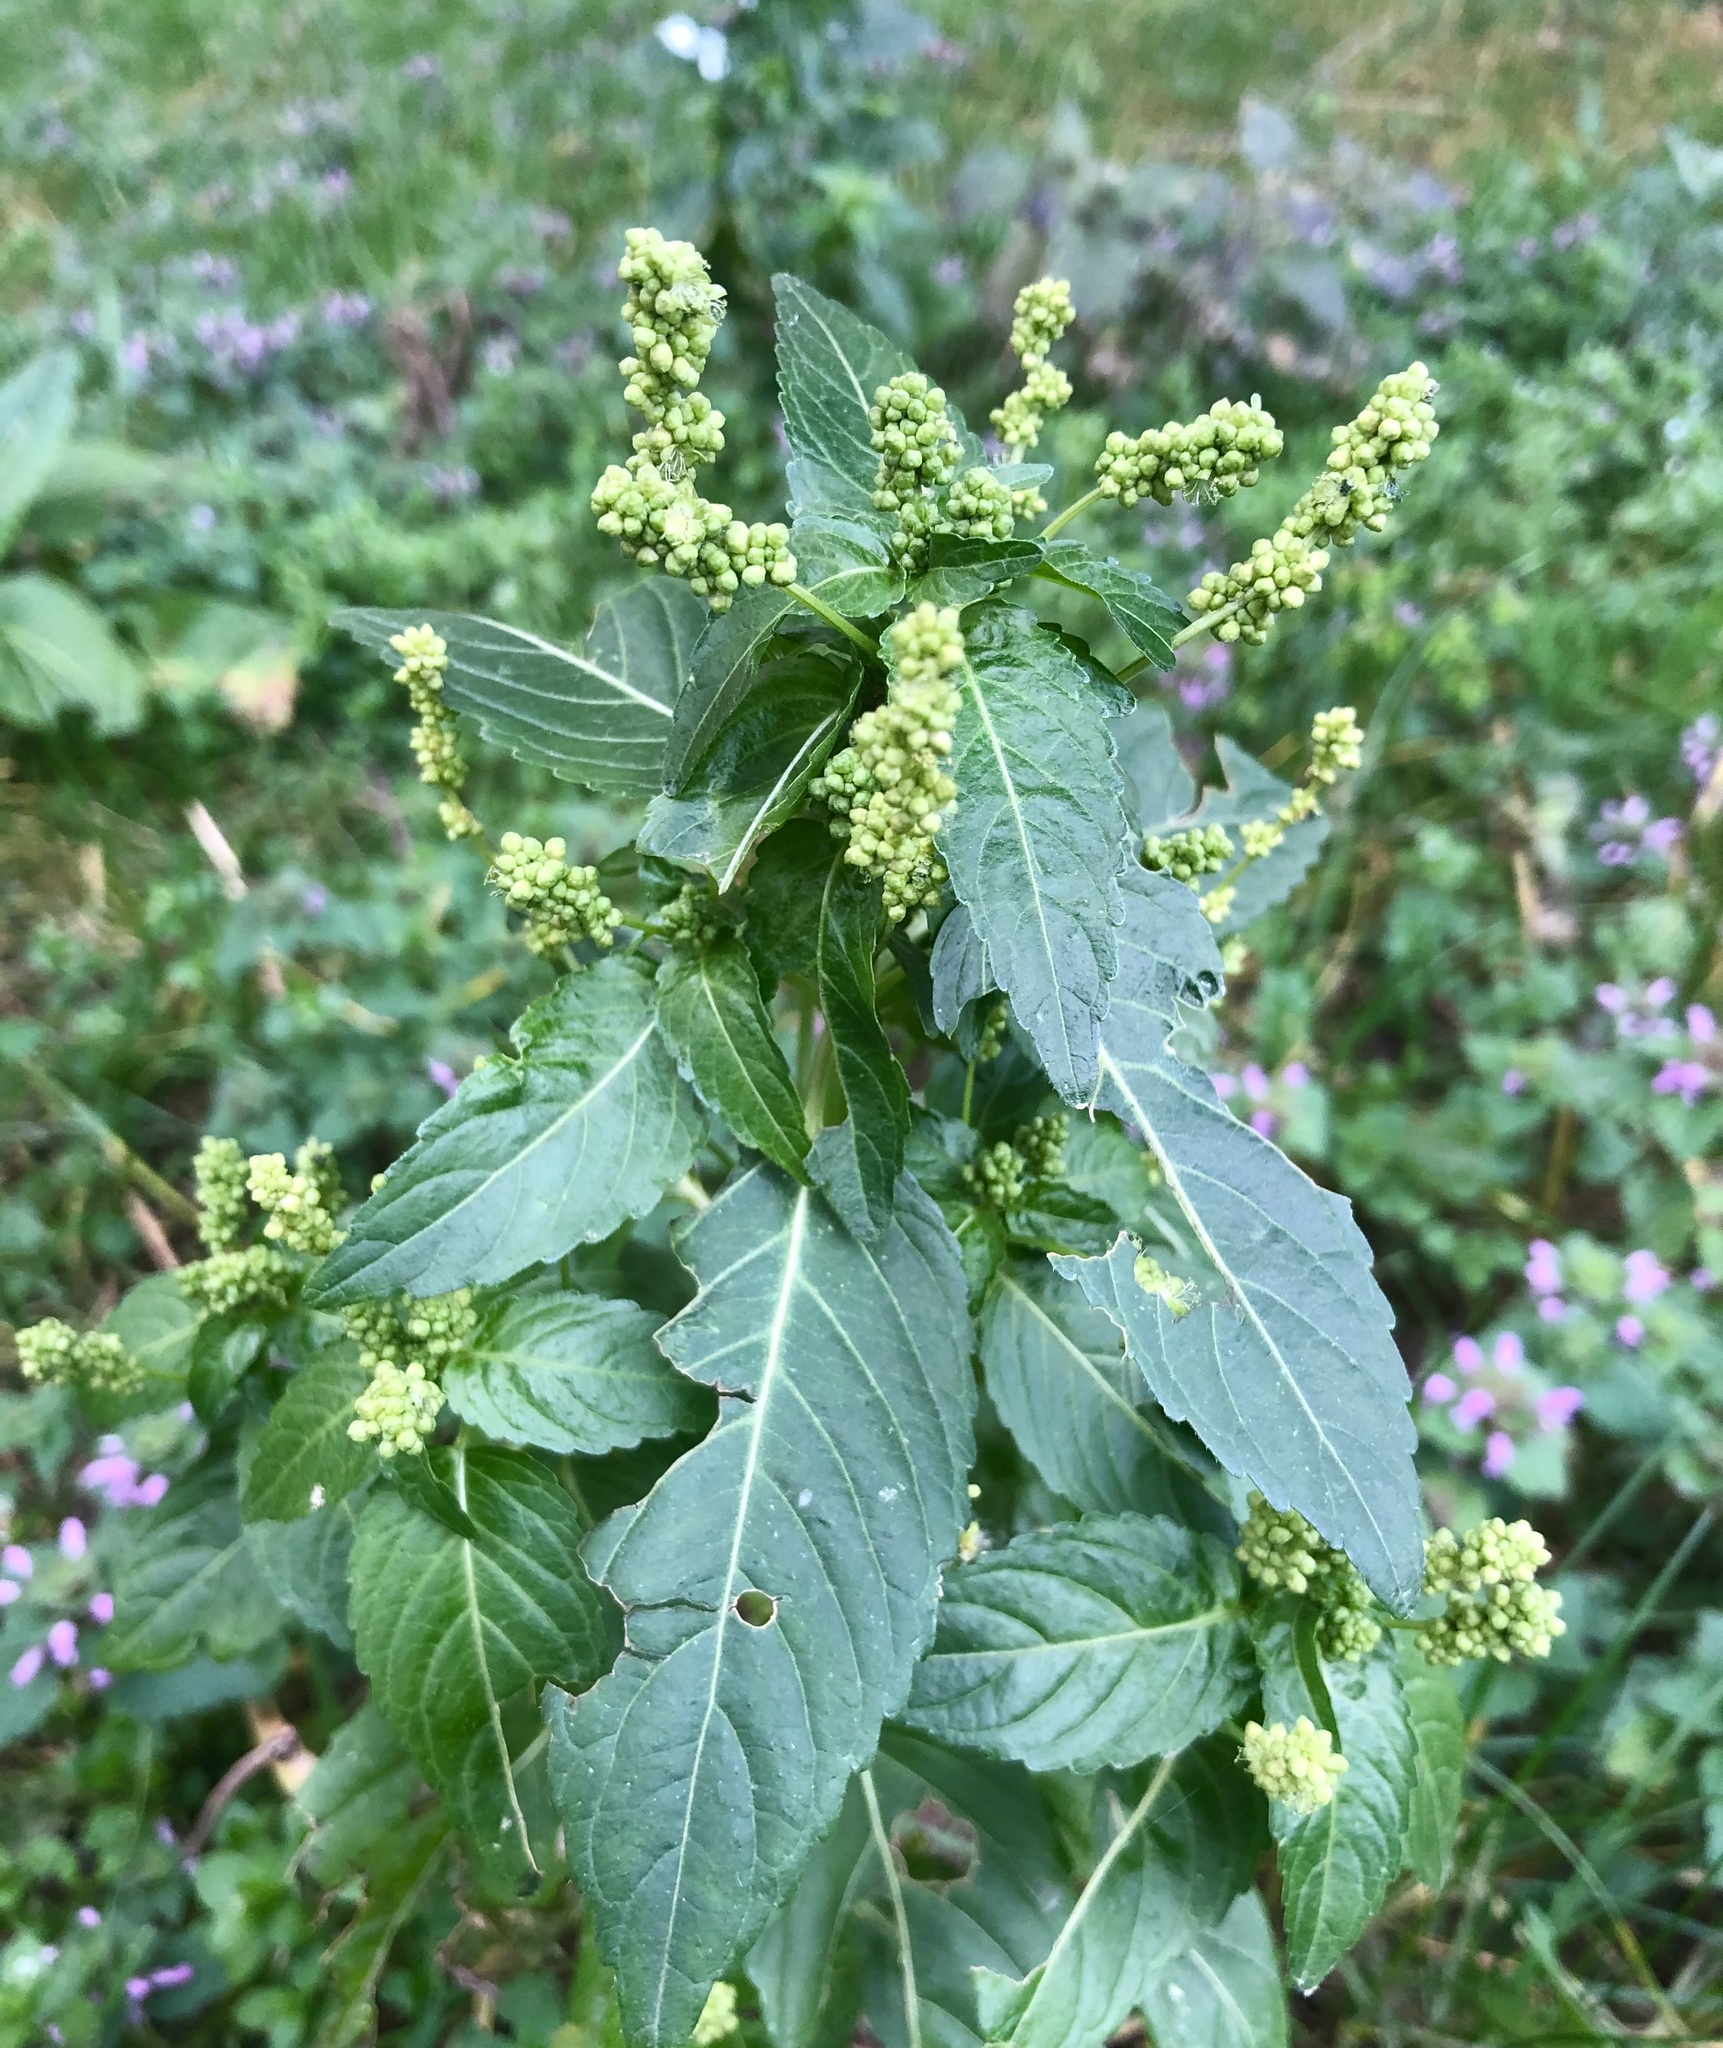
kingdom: Plantae
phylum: Tracheophyta
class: Magnoliopsida
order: Malpighiales
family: Euphorbiaceae
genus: Mercurialis
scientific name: Mercurialis annua
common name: Annual mercury
